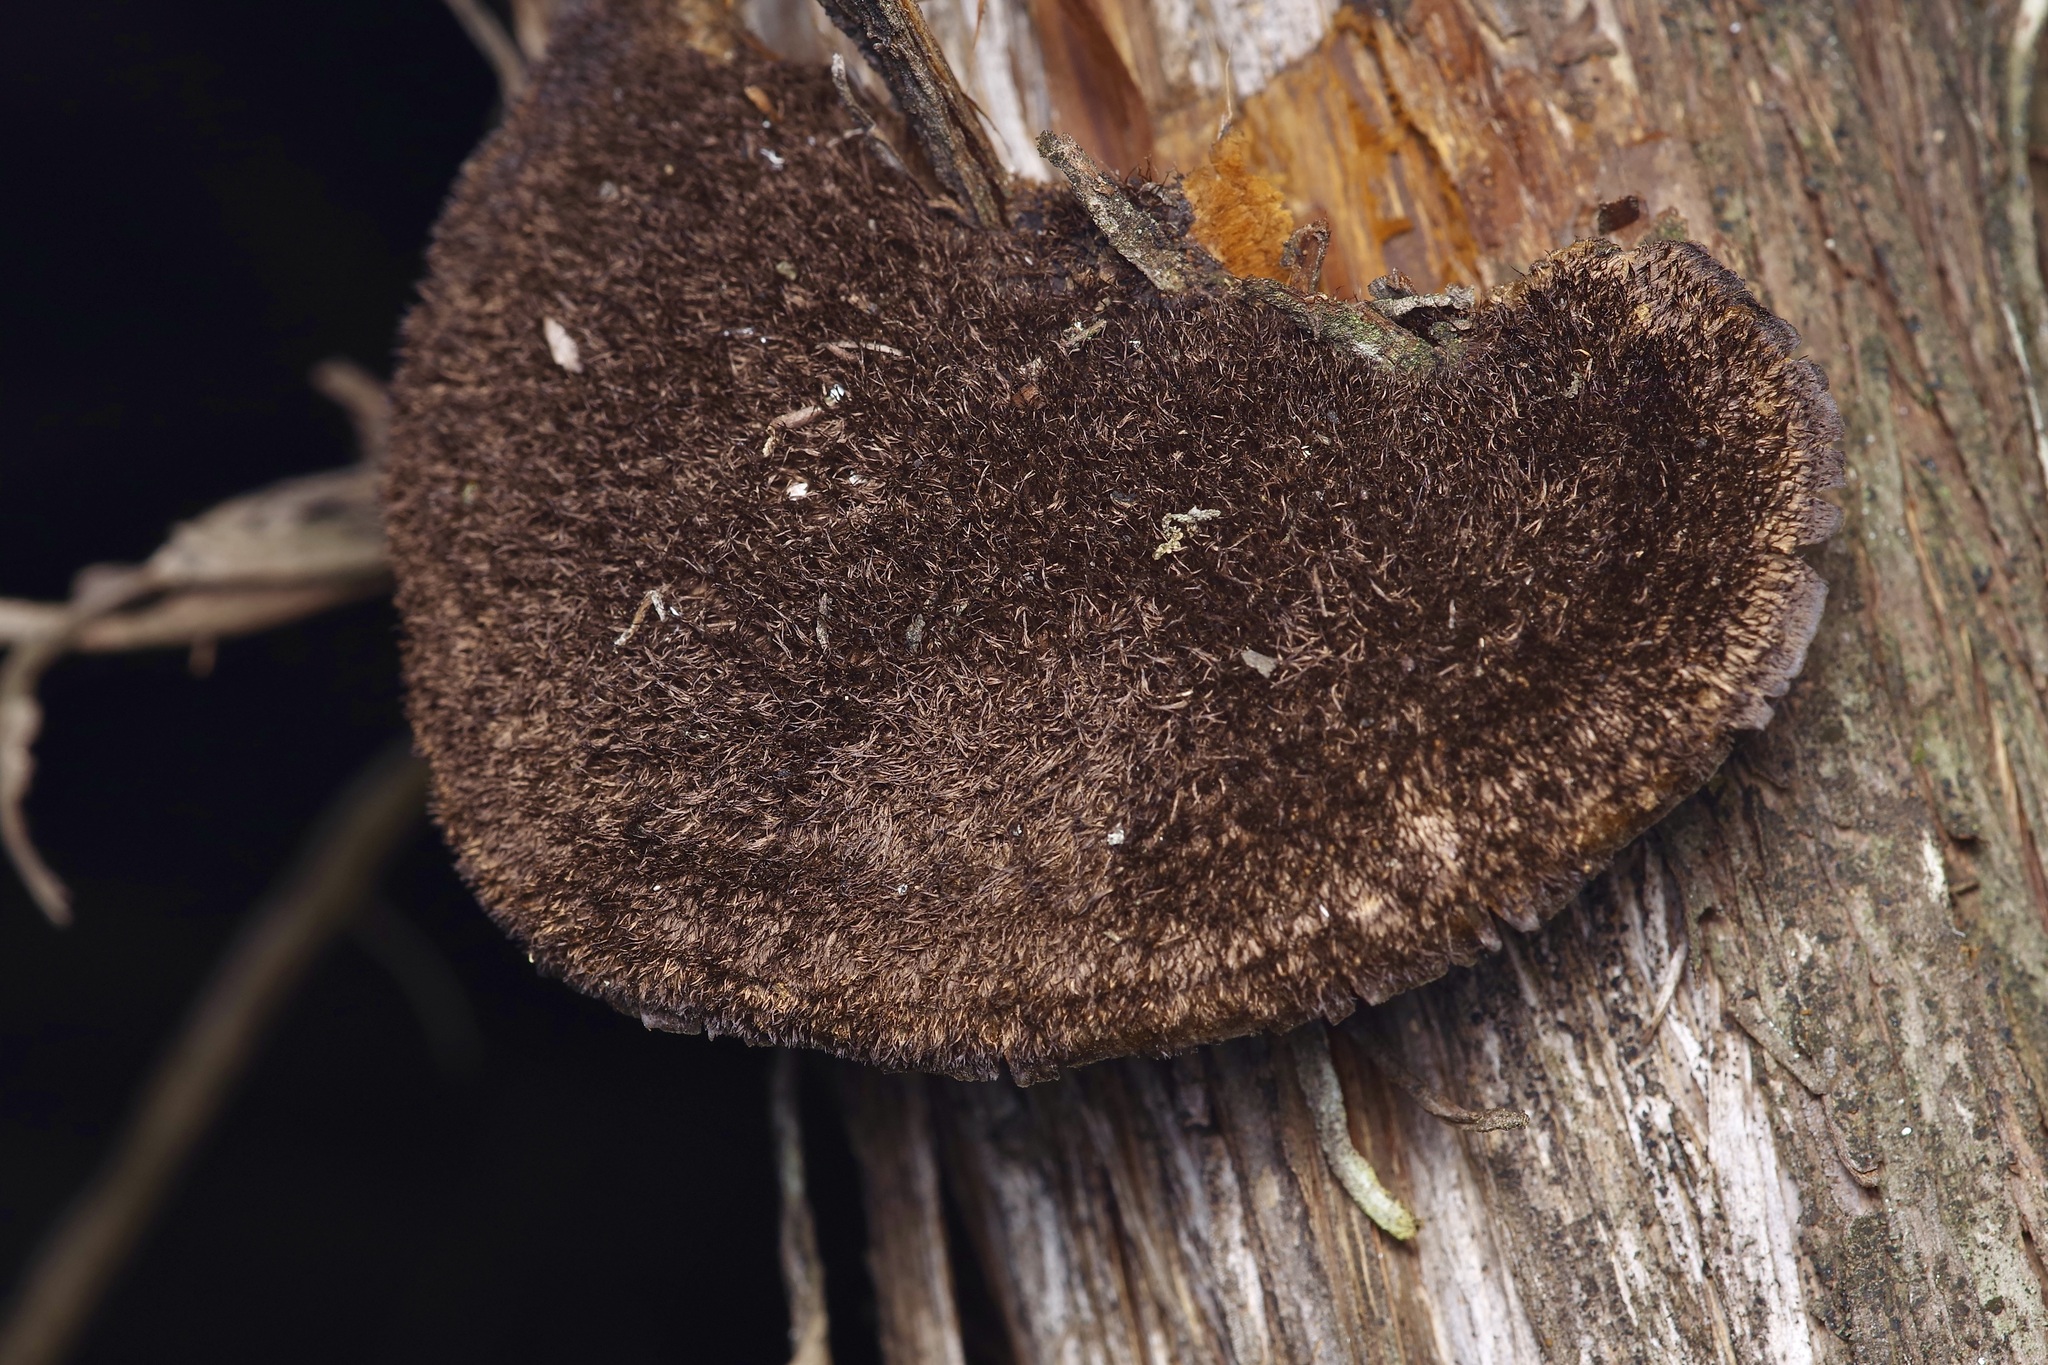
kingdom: Fungi
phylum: Basidiomycota
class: Agaricomycetes
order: Polyporales
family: Cerrenaceae
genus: Cerrena
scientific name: Cerrena hydnoides
